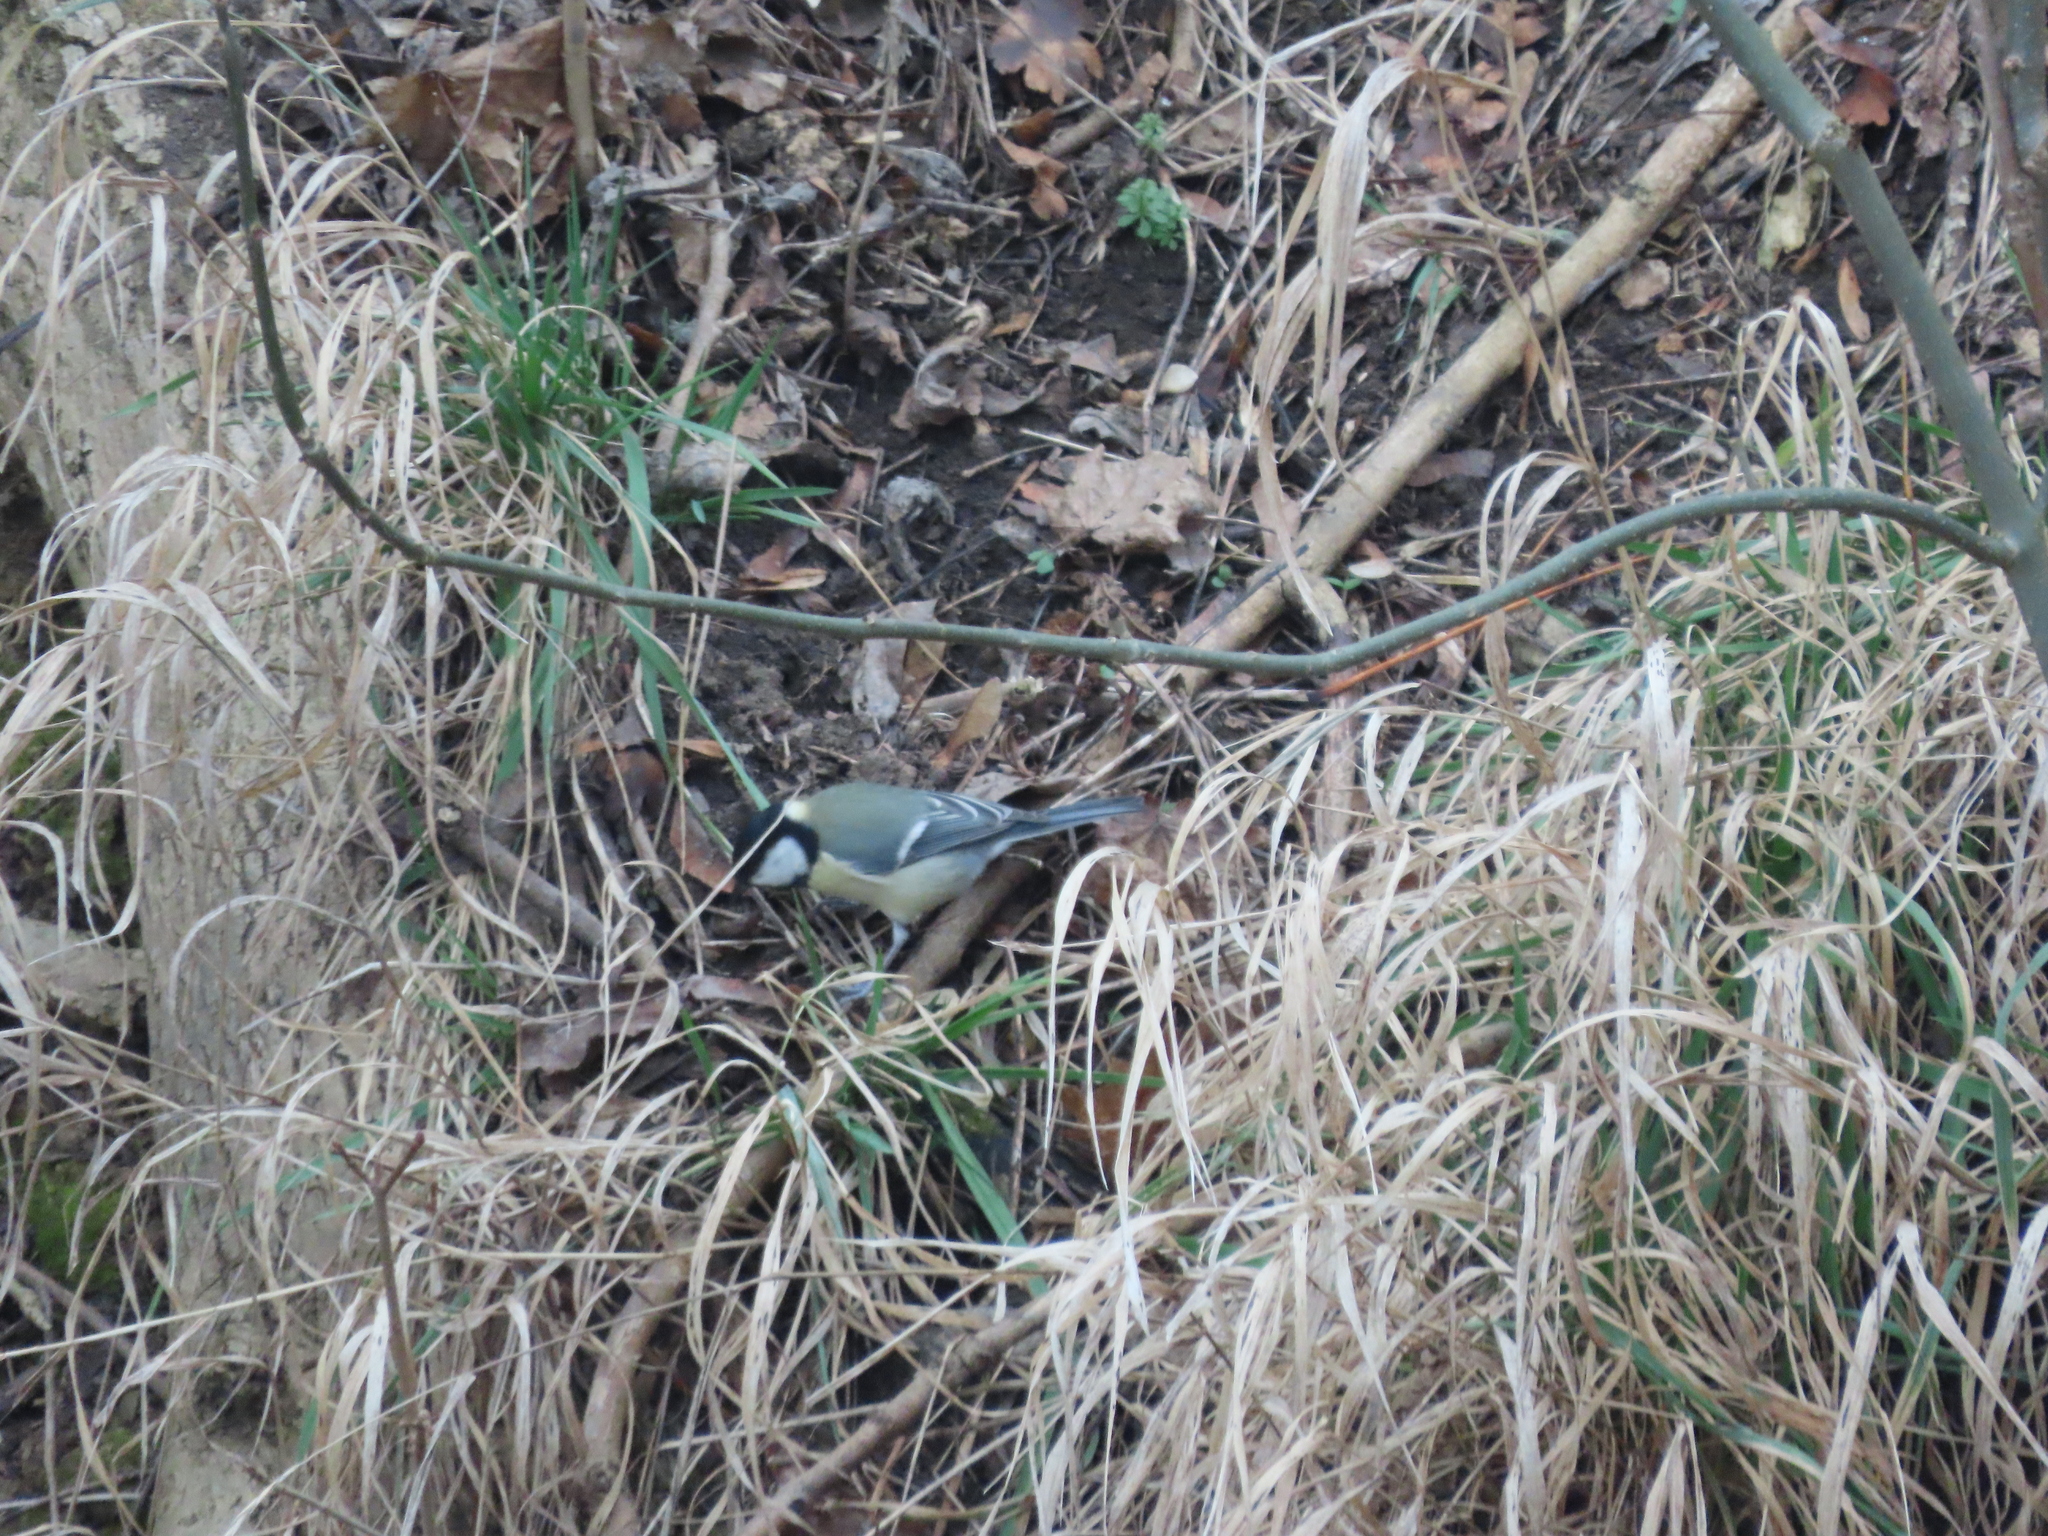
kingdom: Animalia
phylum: Chordata
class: Aves
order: Passeriformes
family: Paridae
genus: Parus
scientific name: Parus major
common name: Great tit
